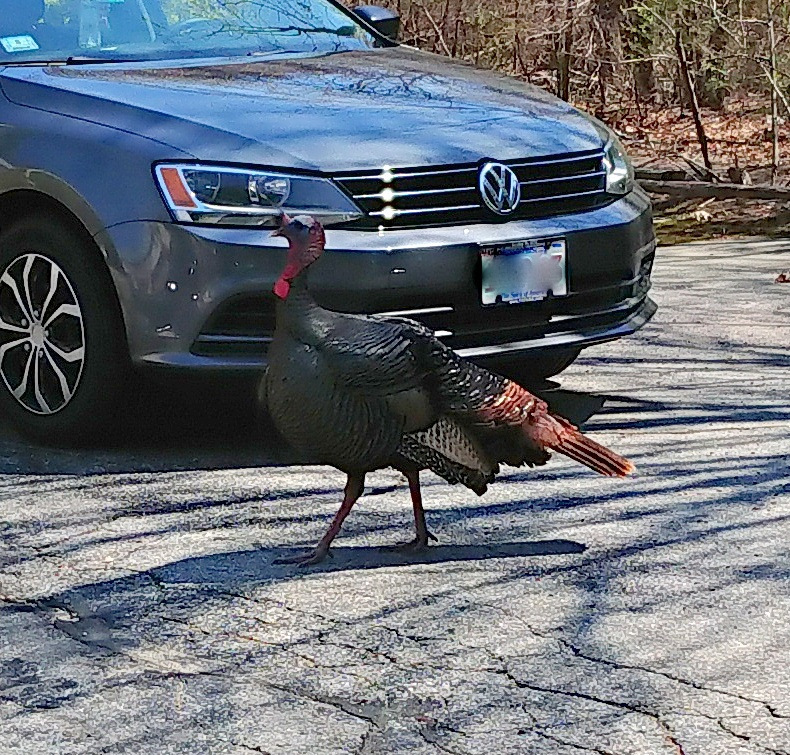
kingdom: Animalia
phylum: Chordata
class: Aves
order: Galliformes
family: Phasianidae
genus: Meleagris
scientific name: Meleagris gallopavo
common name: Wild turkey
